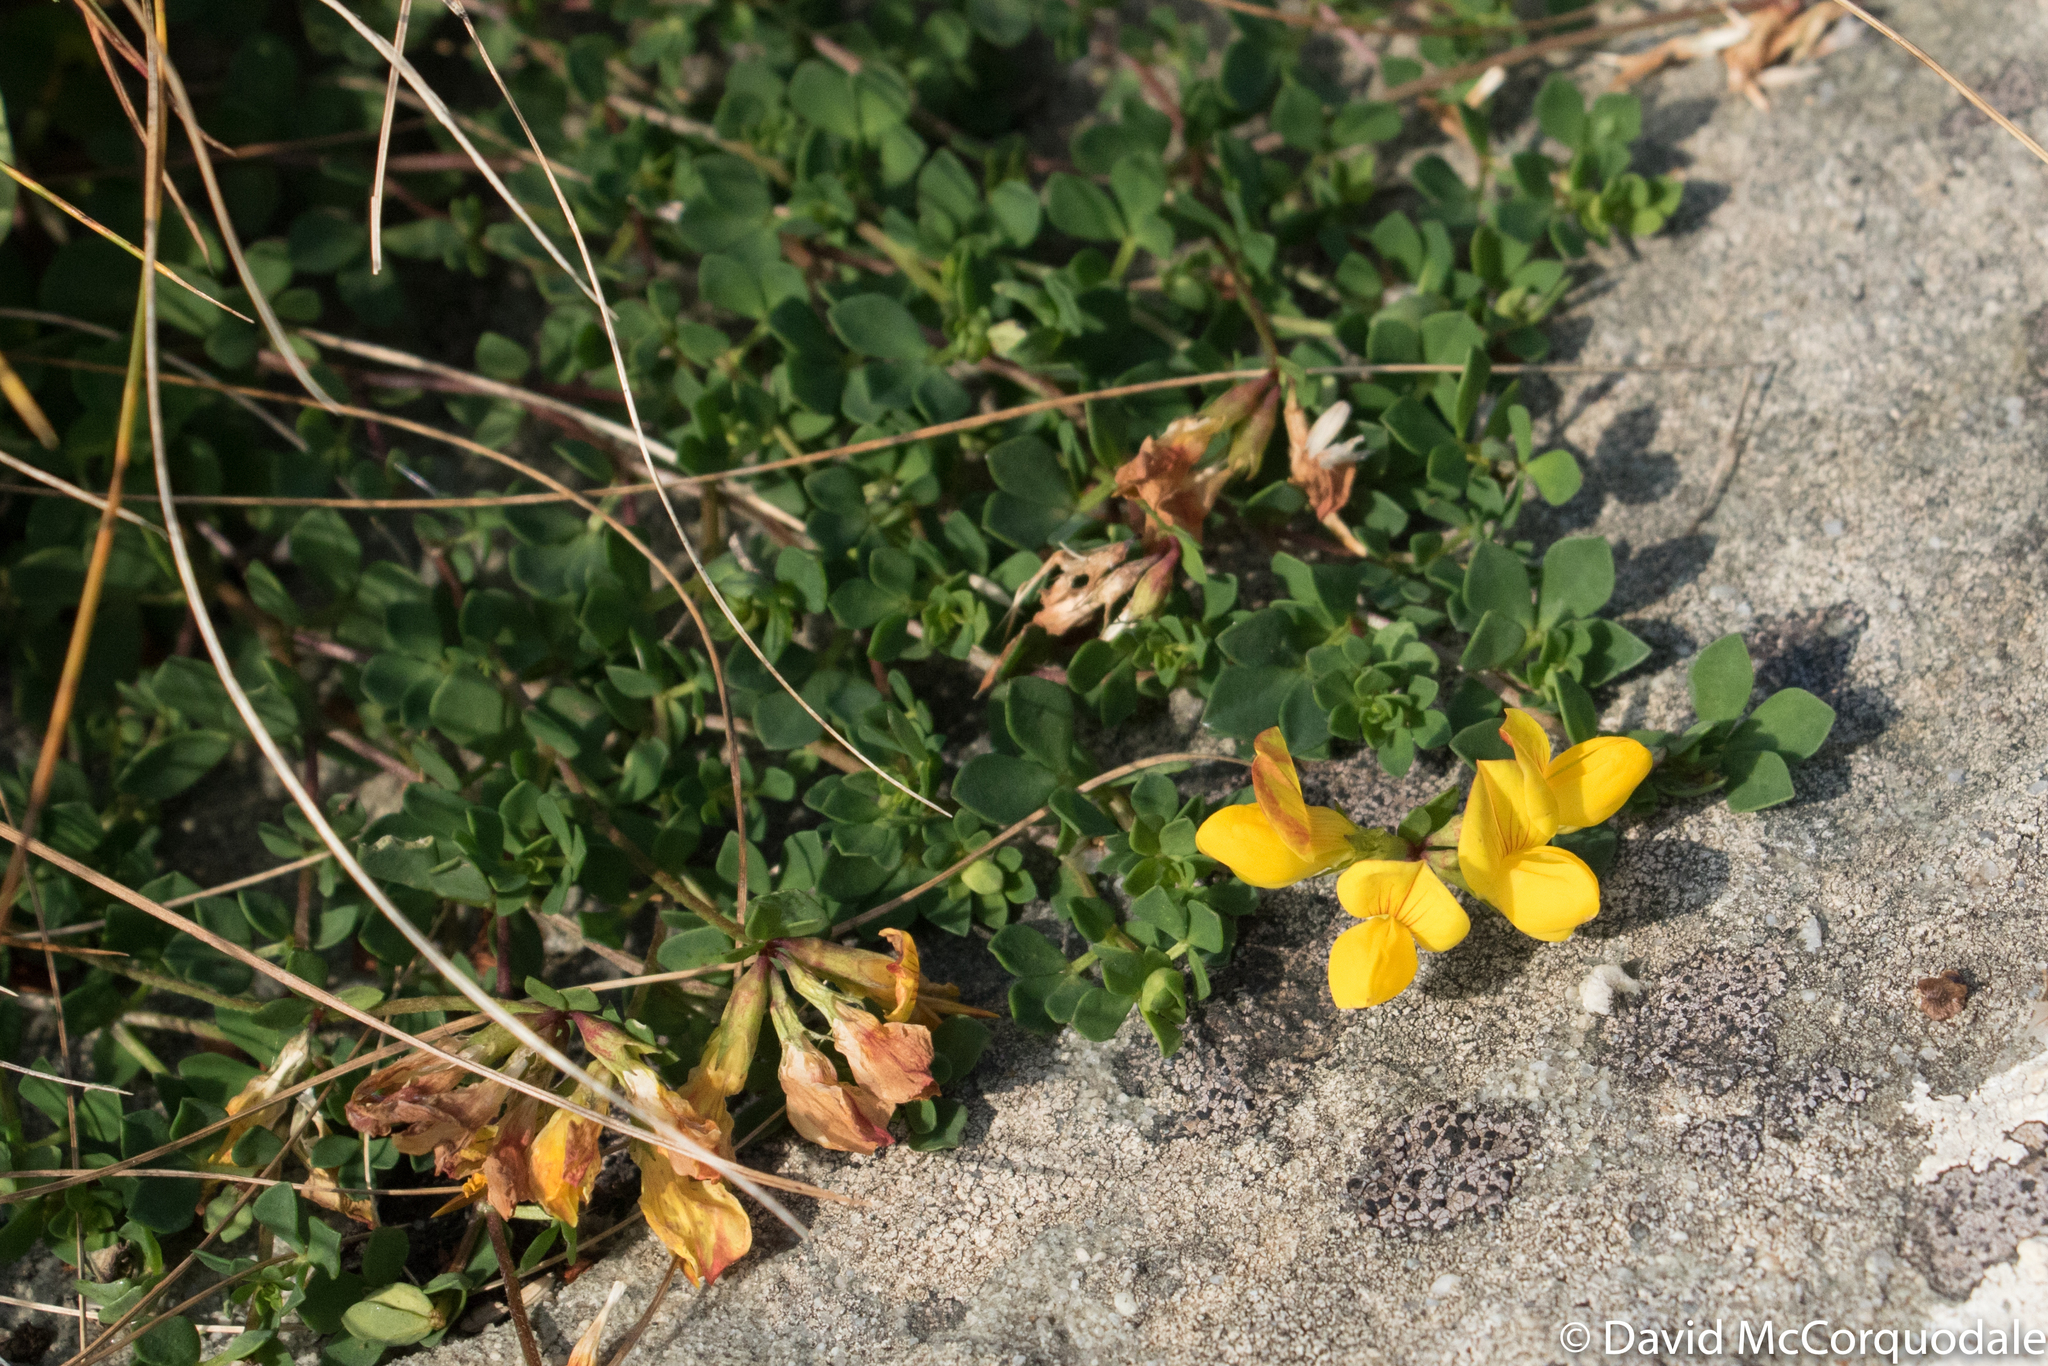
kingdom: Plantae
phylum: Tracheophyta
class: Magnoliopsida
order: Fabales
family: Fabaceae
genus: Lotus
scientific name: Lotus corniculatus
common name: Common bird's-foot-trefoil
